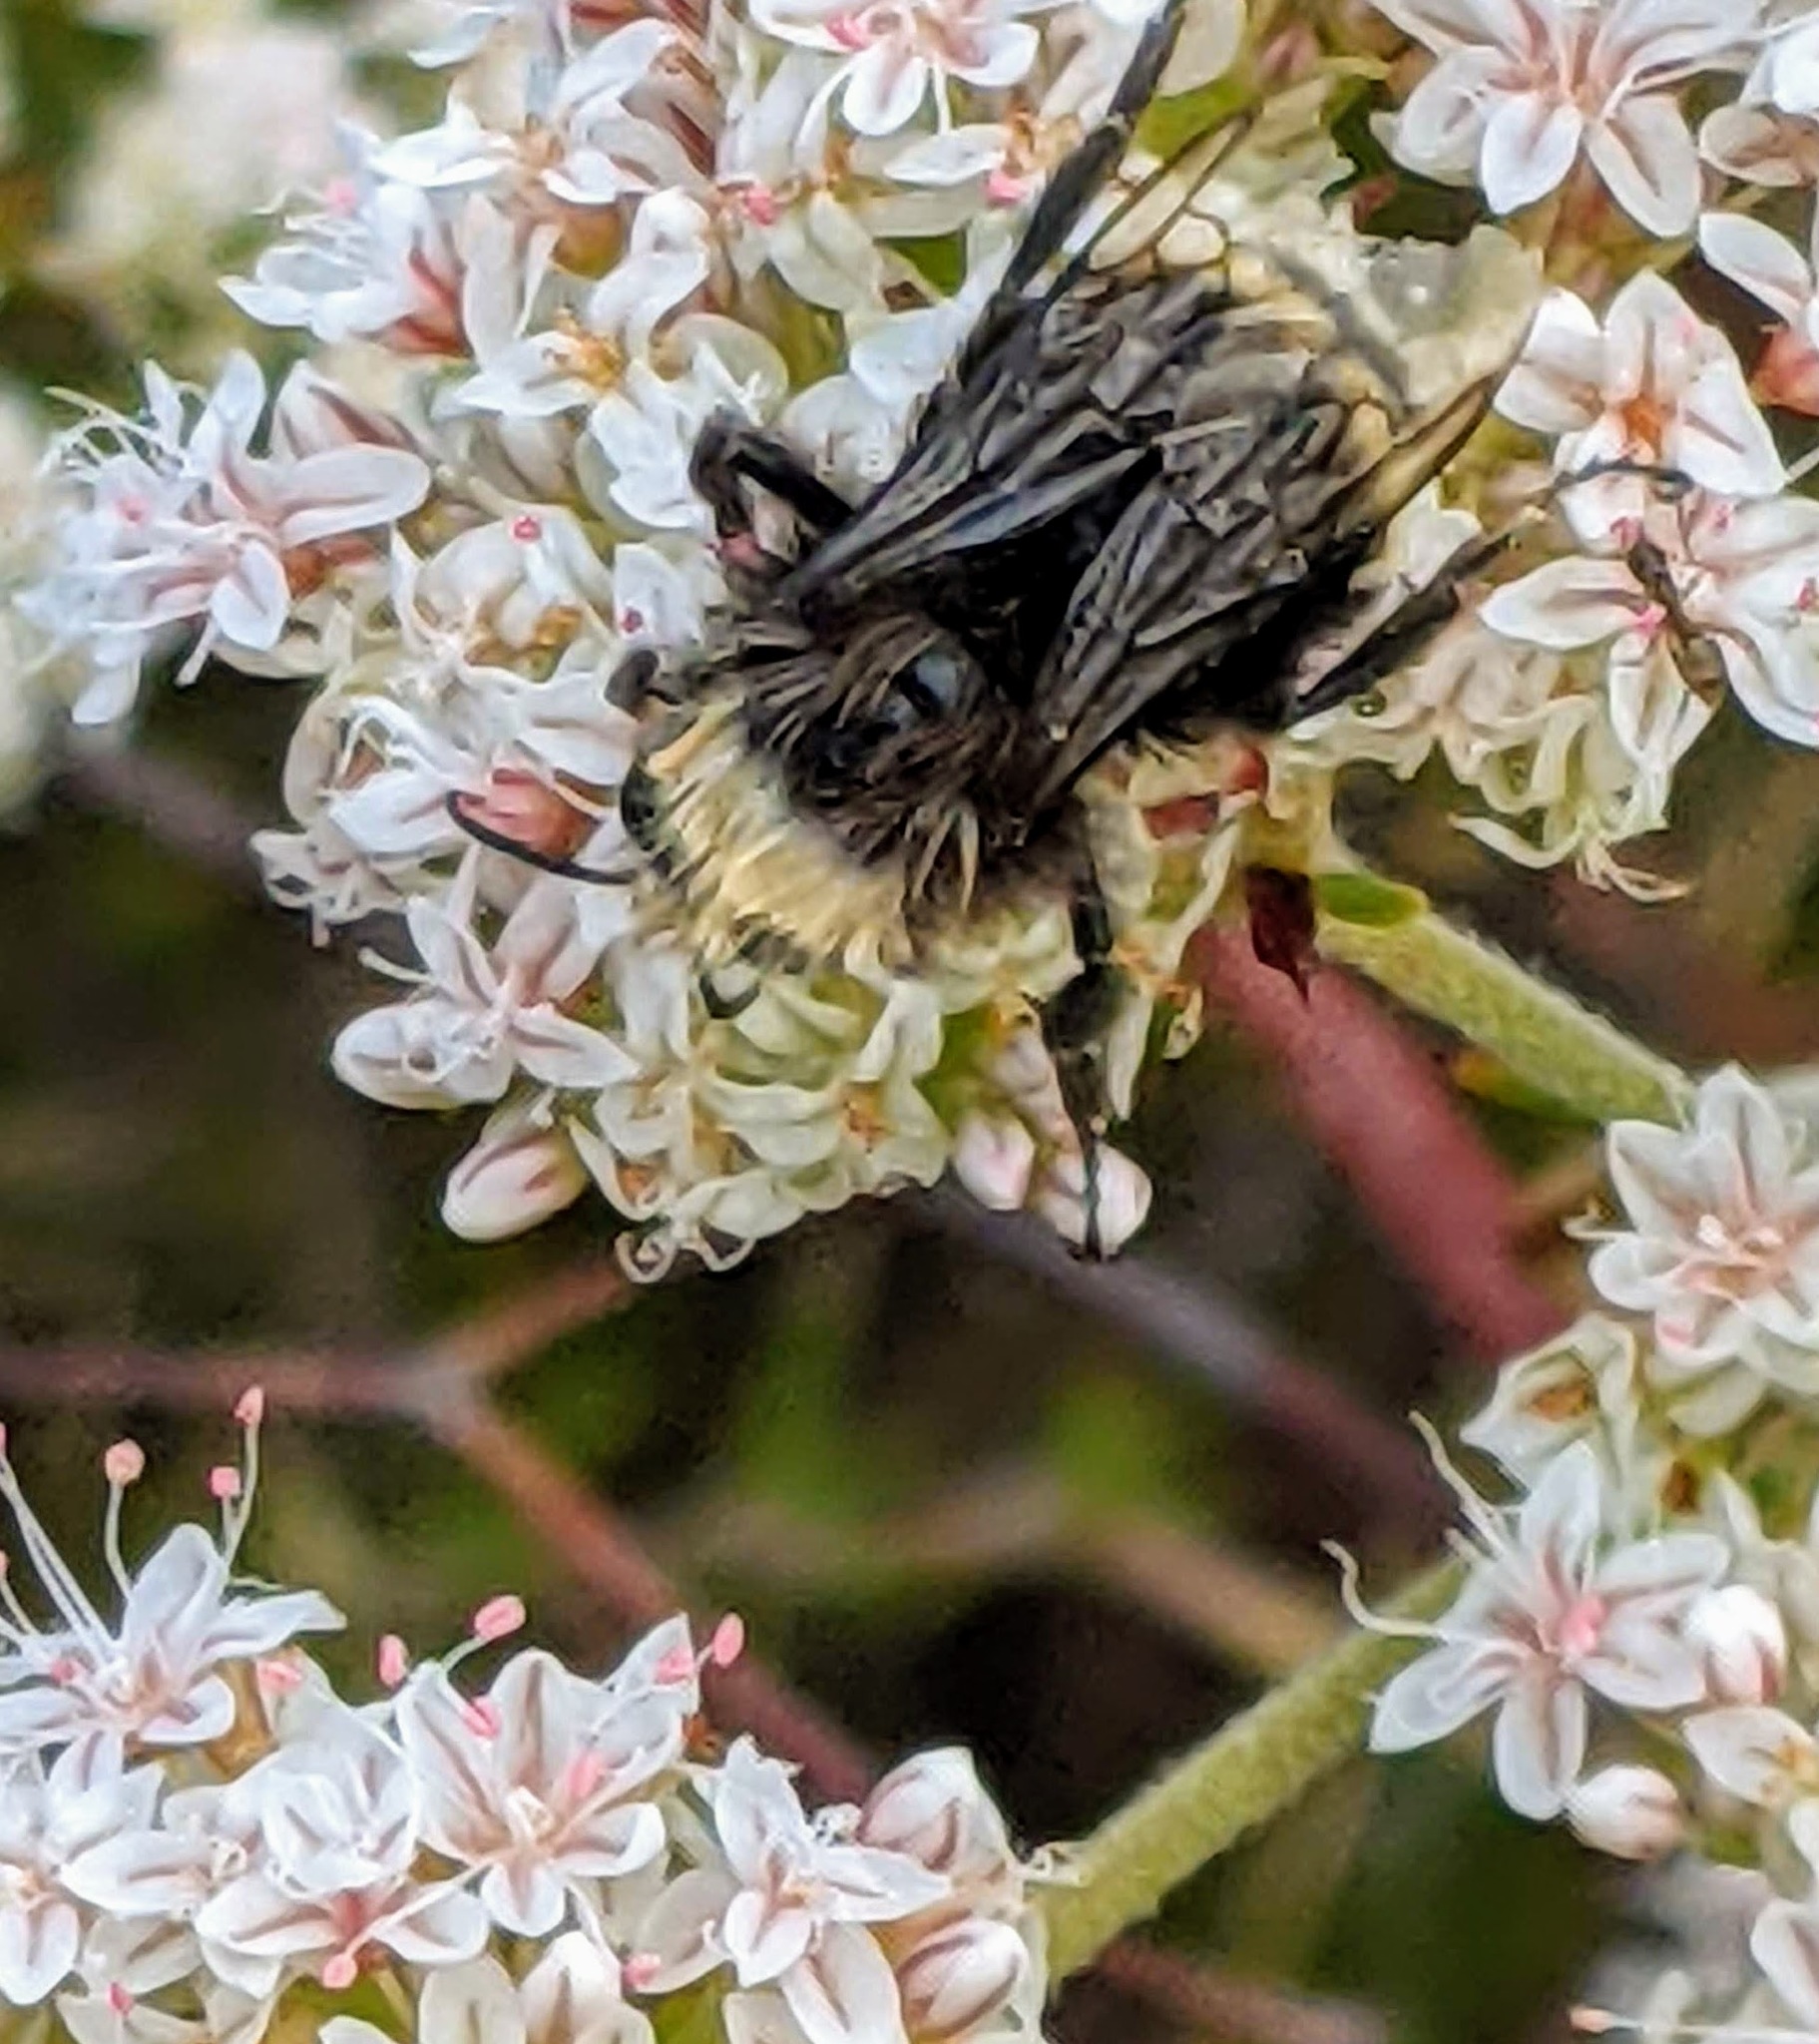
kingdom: Animalia
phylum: Arthropoda
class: Insecta
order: Hymenoptera
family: Apidae
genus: Bombus
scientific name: Bombus vosnesenskii
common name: Vosnesensky bumble bee
